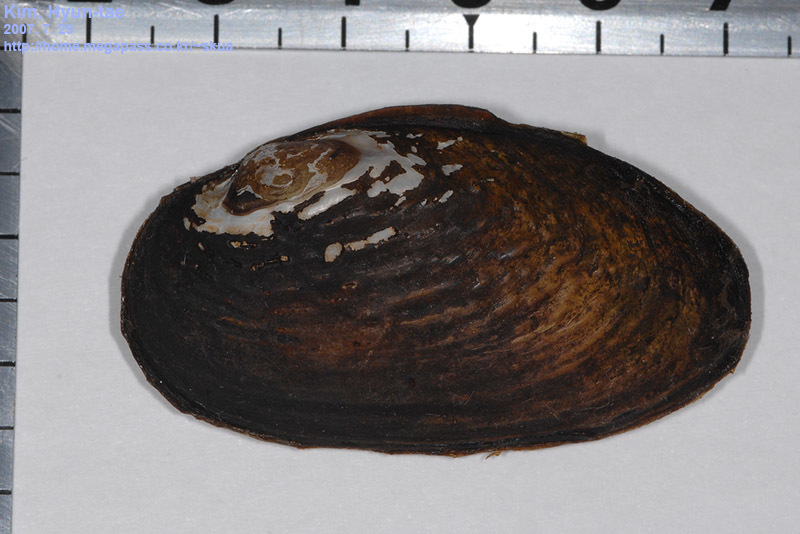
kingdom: Animalia
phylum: Mollusca
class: Bivalvia
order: Unionida
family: Unionidae
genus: Nodularia
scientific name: Nodularia douglasiae
